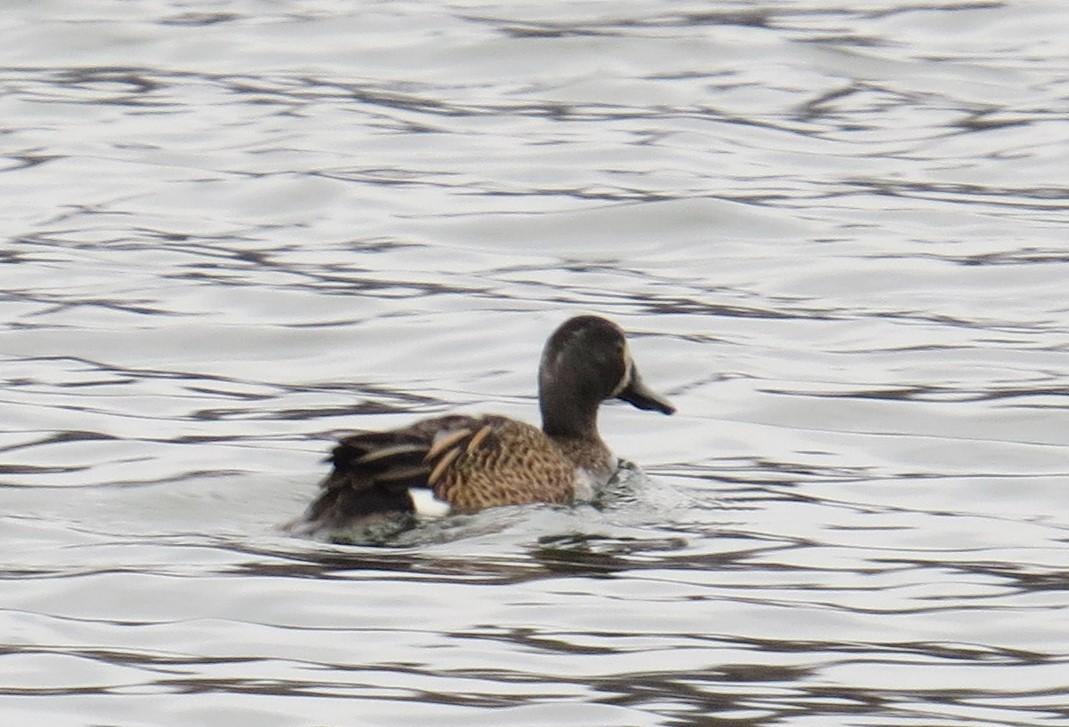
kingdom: Animalia
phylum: Chordata
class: Aves
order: Anseriformes
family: Anatidae
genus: Spatula
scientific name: Spatula discors
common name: Blue-winged teal
